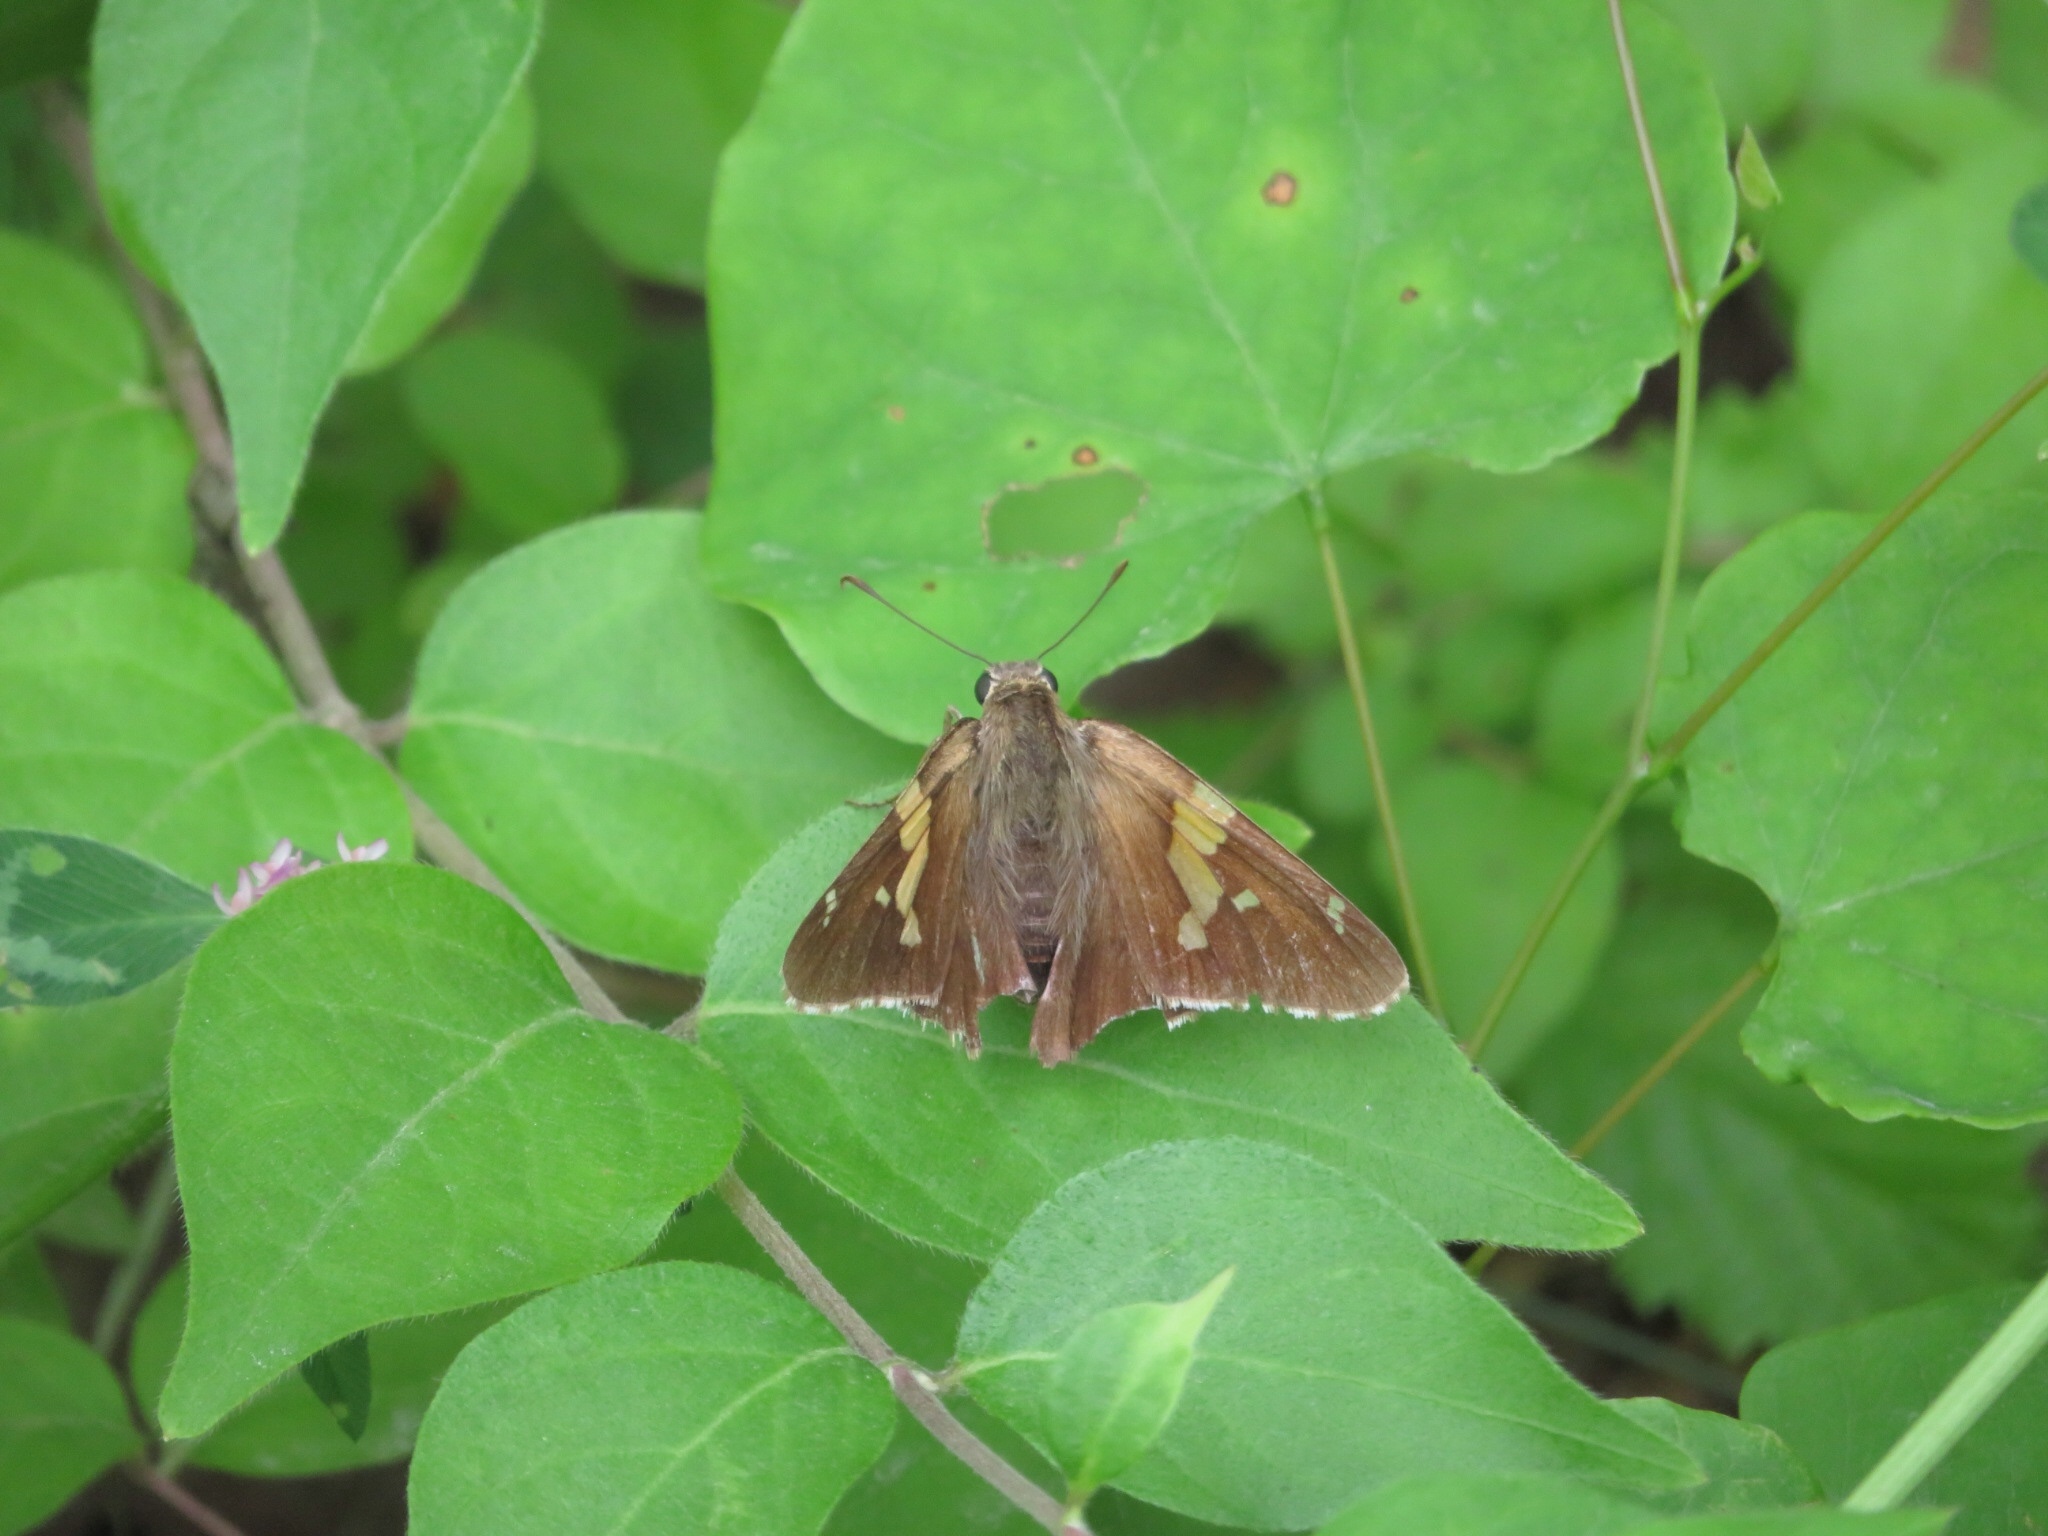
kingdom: Animalia
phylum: Arthropoda
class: Insecta
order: Lepidoptera
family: Hesperiidae
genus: Epargyreus
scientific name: Epargyreus clarus
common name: Silver-spotted skipper
